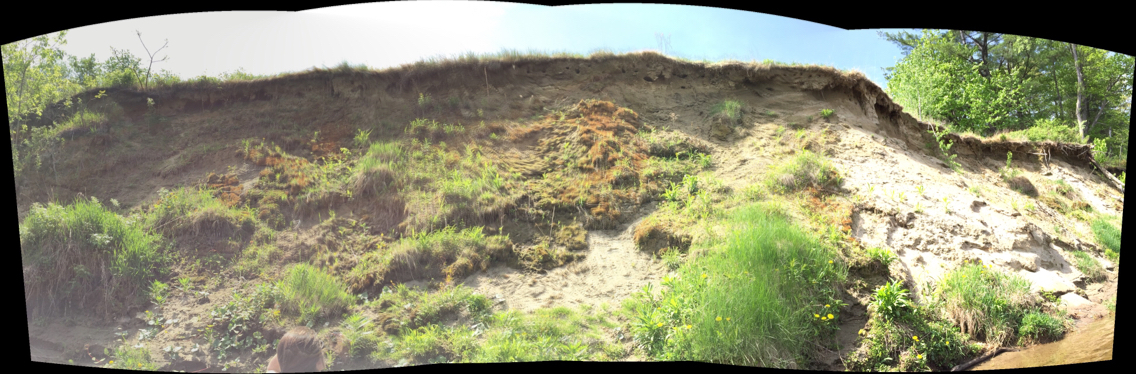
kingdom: Animalia
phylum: Chordata
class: Aves
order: Passeriformes
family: Hirundinidae
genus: Riparia
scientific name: Riparia riparia
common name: Sand martin
